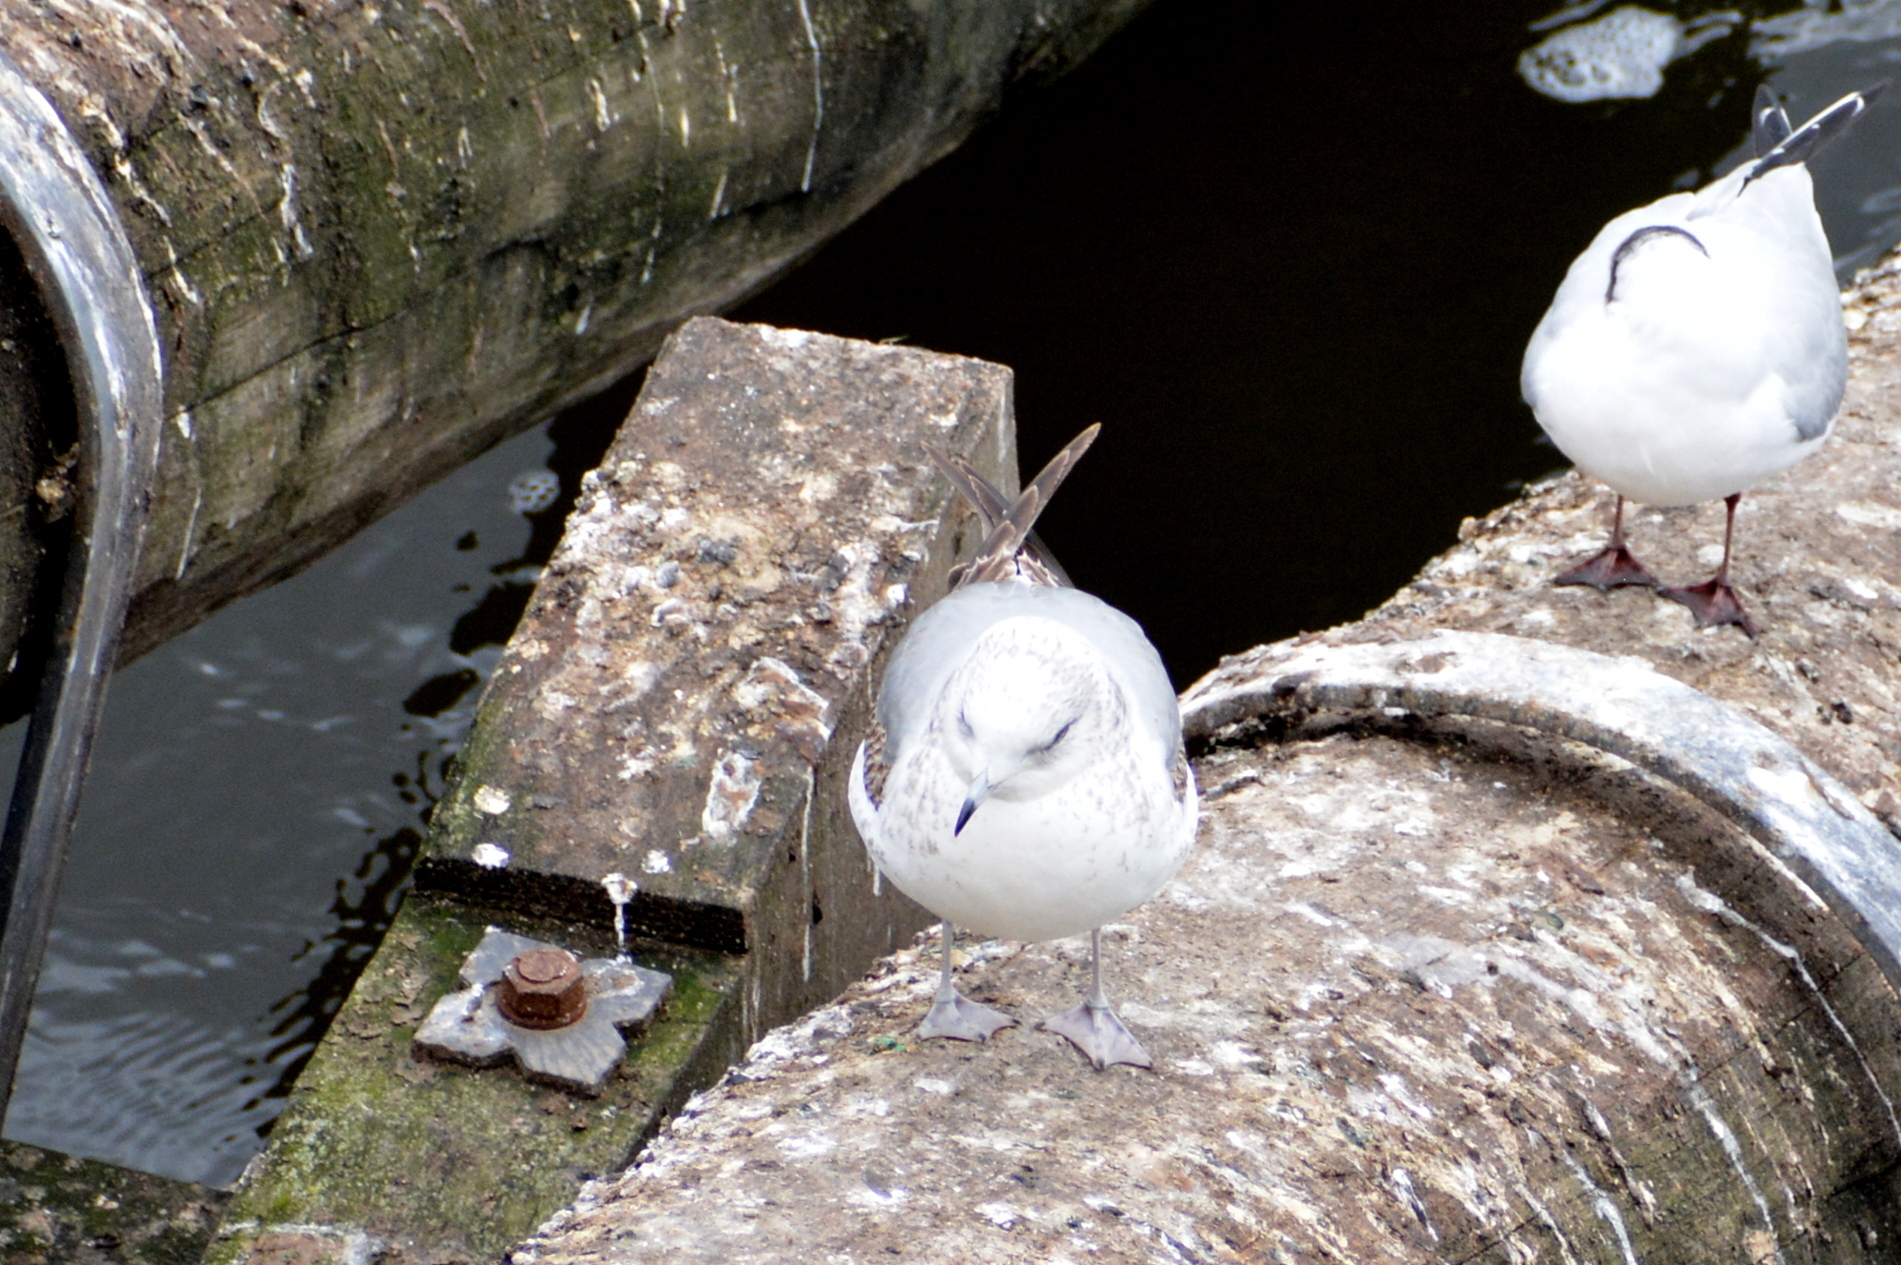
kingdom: Animalia
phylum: Chordata
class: Aves
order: Charadriiformes
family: Laridae
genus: Larus
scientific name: Larus canus
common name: Mew gull
